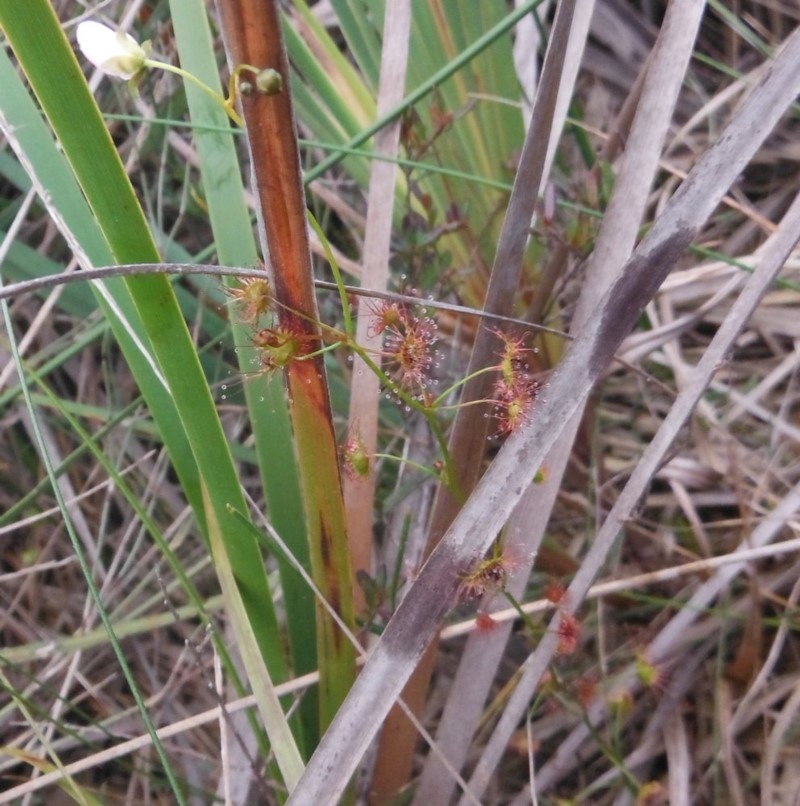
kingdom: Plantae
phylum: Tracheophyta
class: Magnoliopsida
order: Caryophyllales
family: Droseraceae
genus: Drosera
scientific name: Drosera peltata
